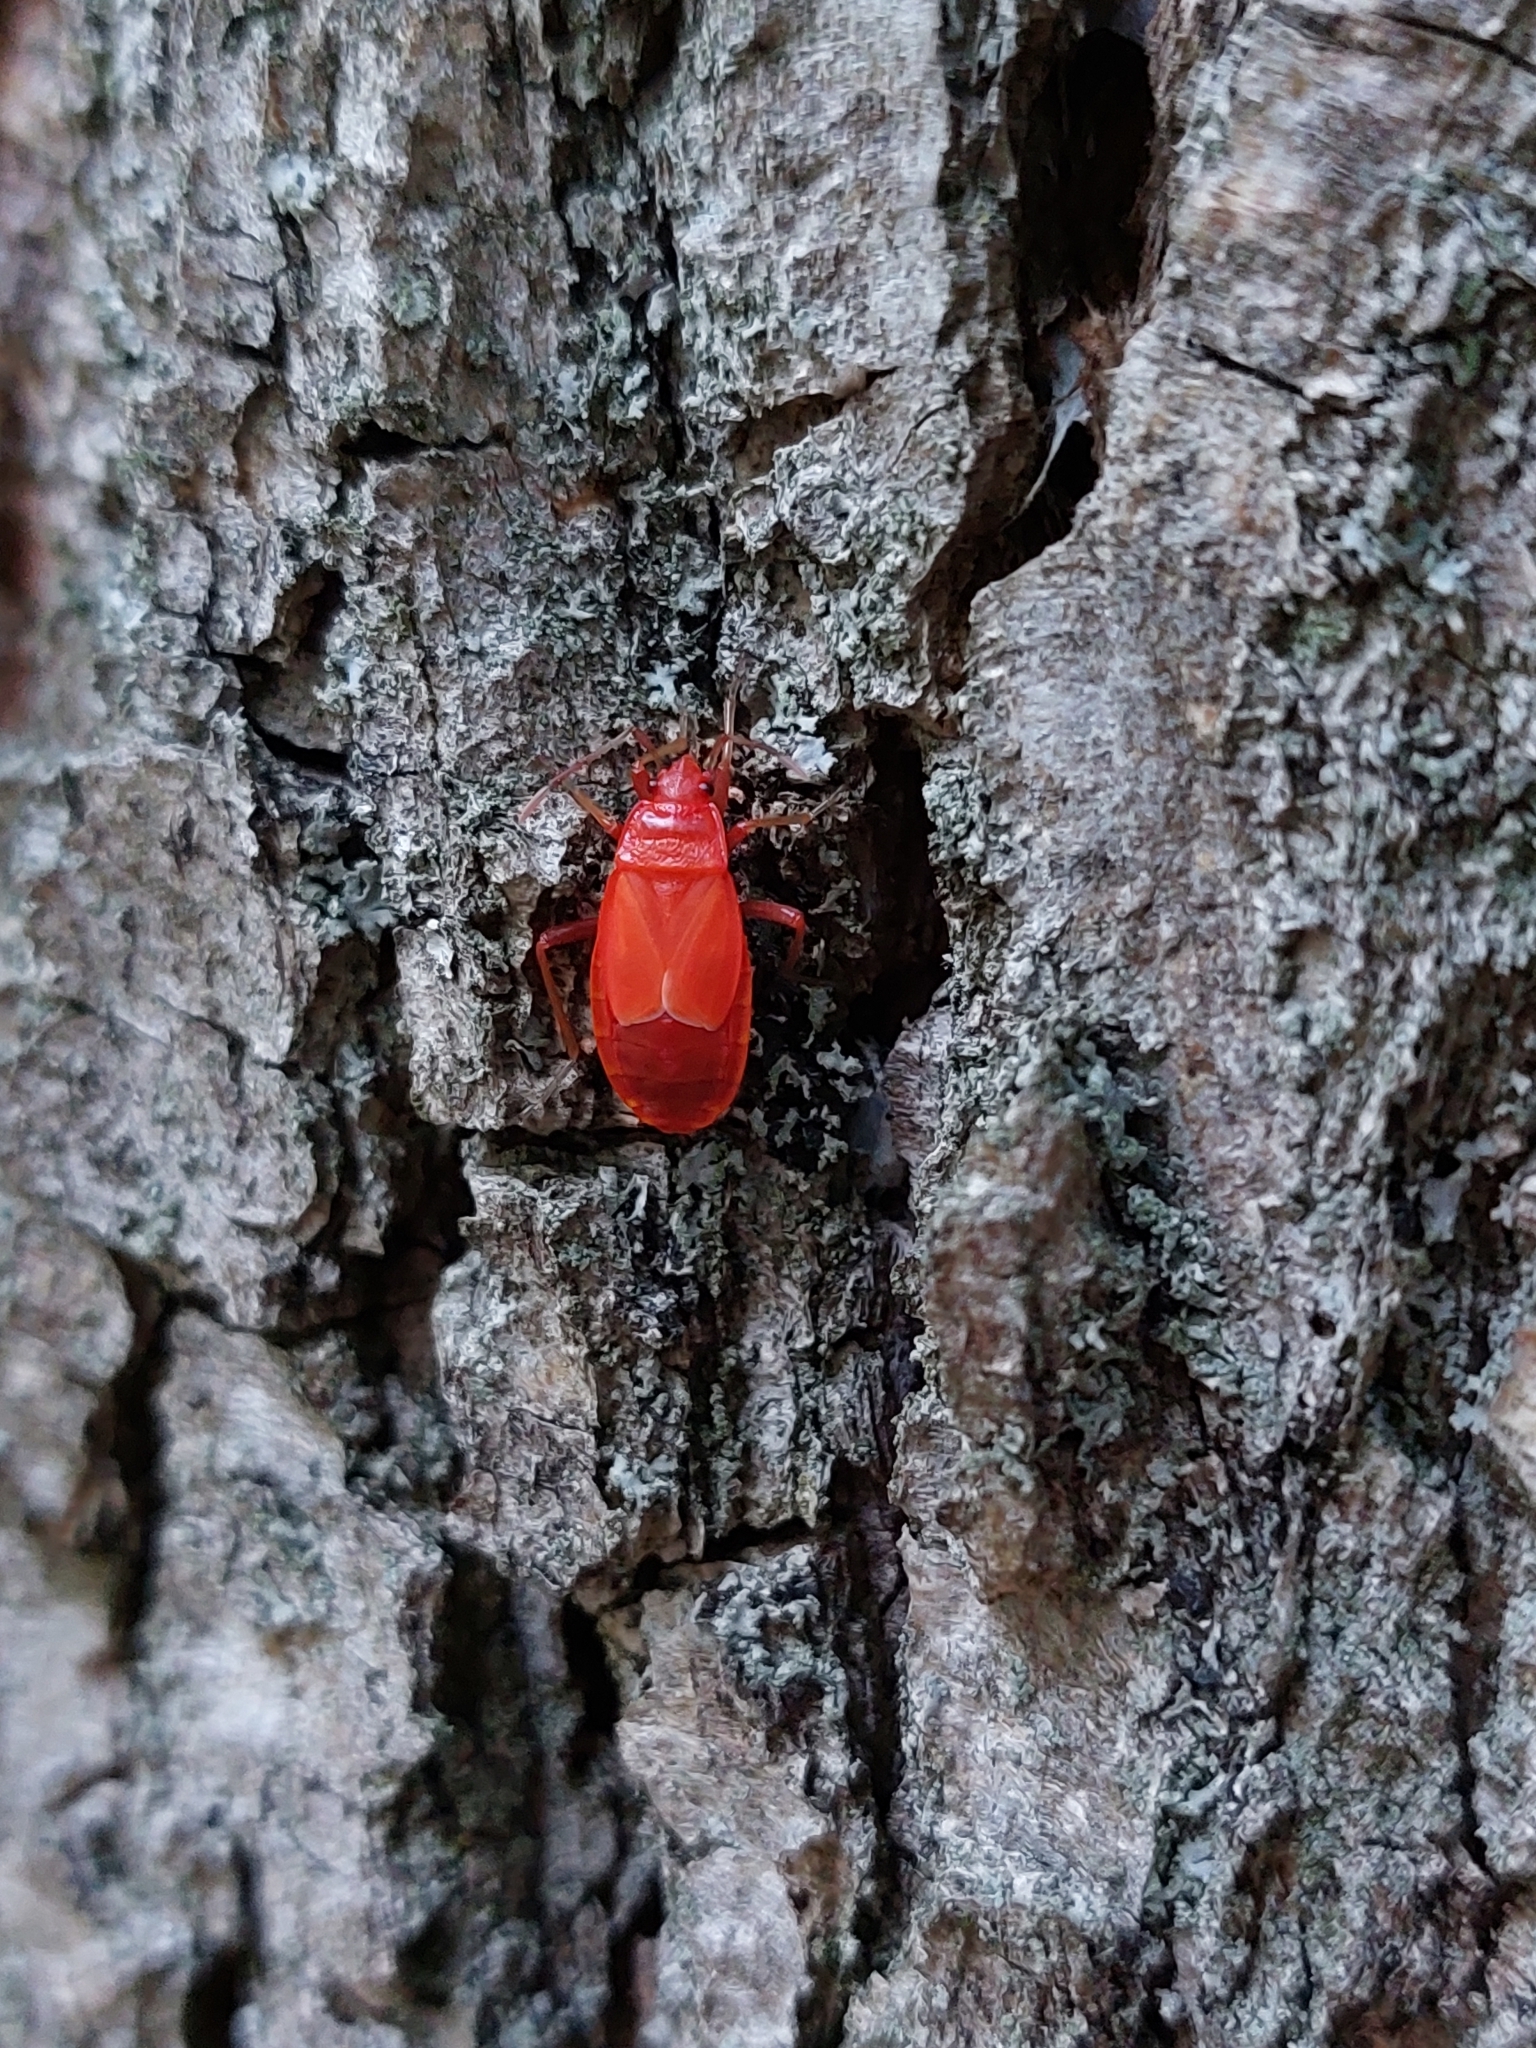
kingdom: Animalia
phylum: Arthropoda
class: Insecta
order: Hemiptera
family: Pyrrhocoridae
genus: Pyrrhocoris
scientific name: Pyrrhocoris apterus
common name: Firebug
